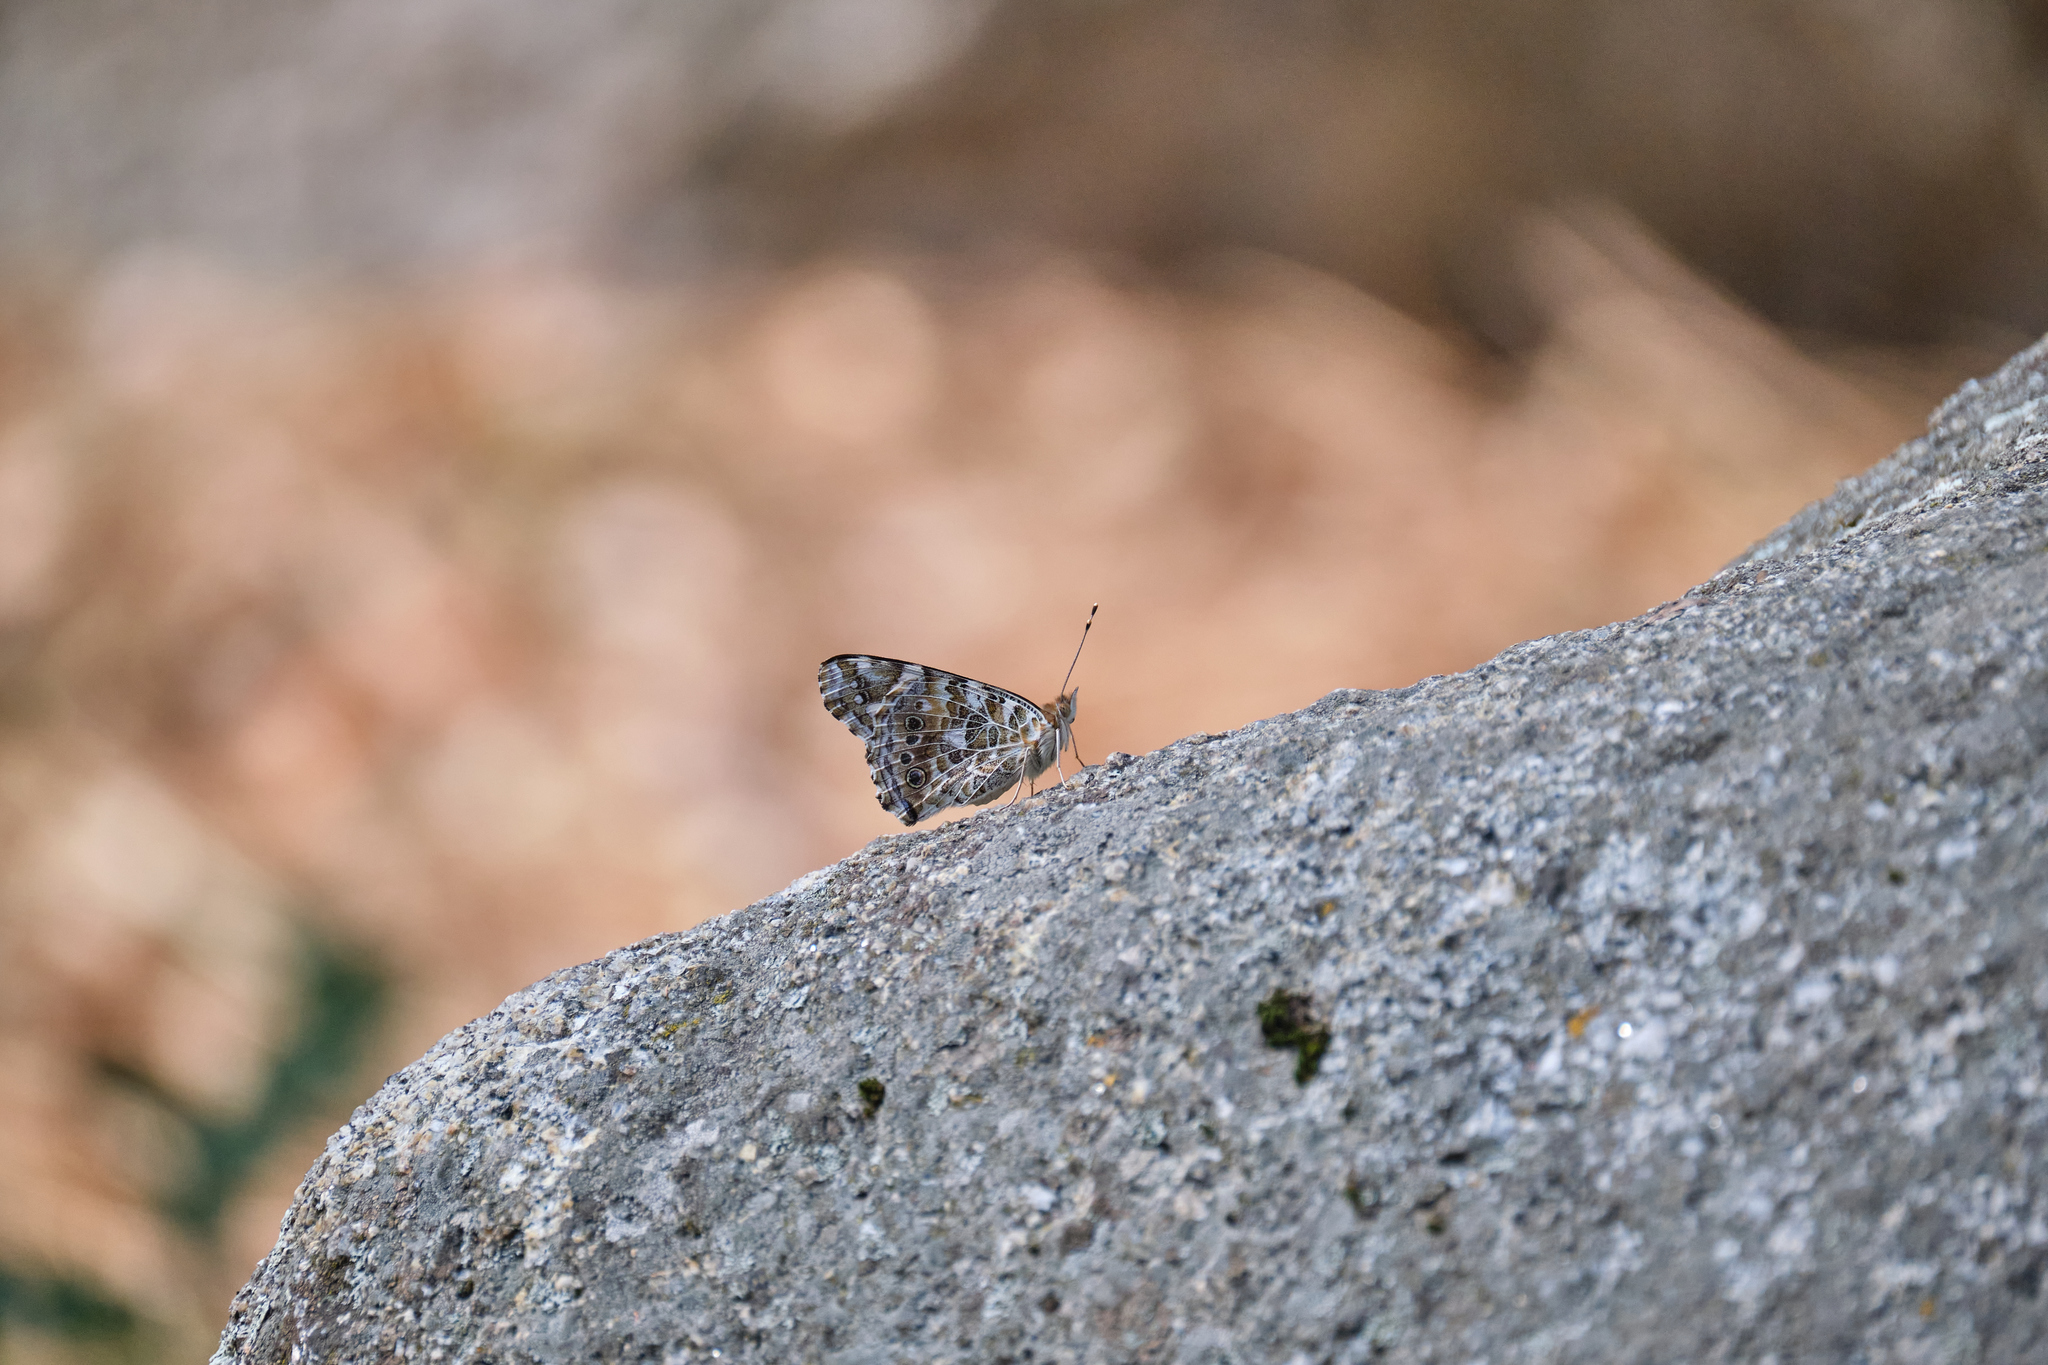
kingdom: Animalia
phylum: Arthropoda
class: Insecta
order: Lepidoptera
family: Nymphalidae
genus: Vanessa
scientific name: Vanessa cardui
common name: Painted lady
